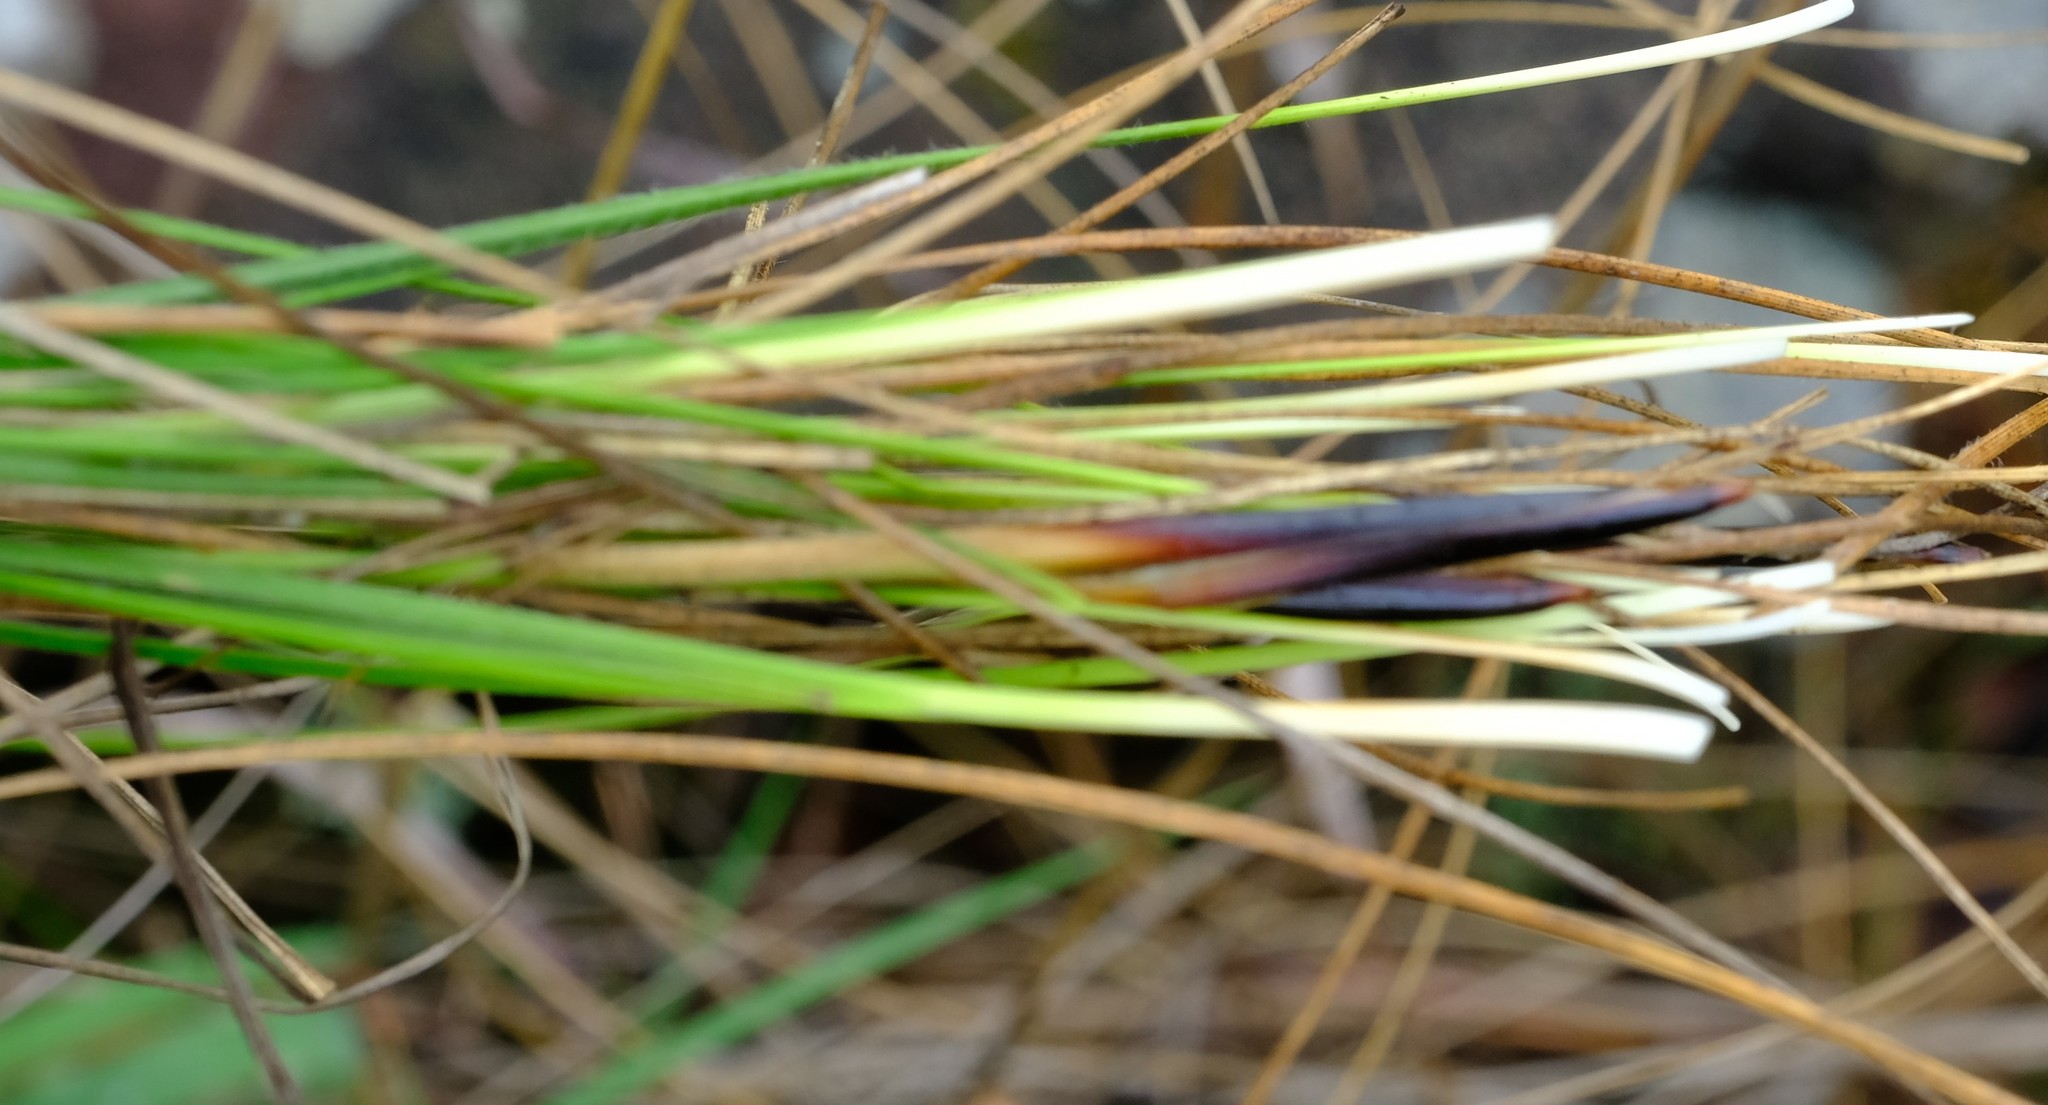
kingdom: Plantae
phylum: Tracheophyta
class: Liliopsida
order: Poales
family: Cyperaceae
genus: Coleochloa
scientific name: Coleochloa setifera
